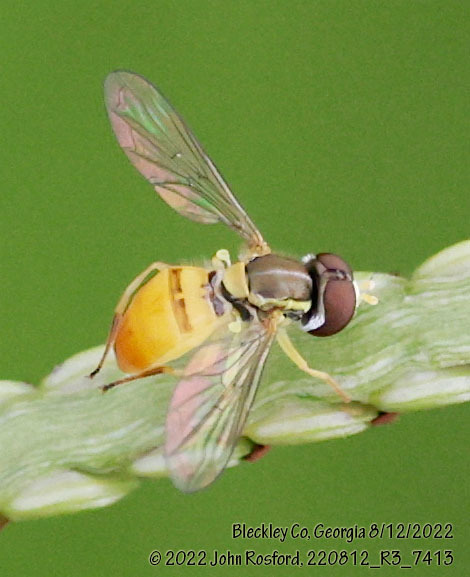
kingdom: Animalia
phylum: Arthropoda
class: Insecta
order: Diptera
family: Syrphidae
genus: Toxomerus
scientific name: Toxomerus marginatus
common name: Syrphid fly
